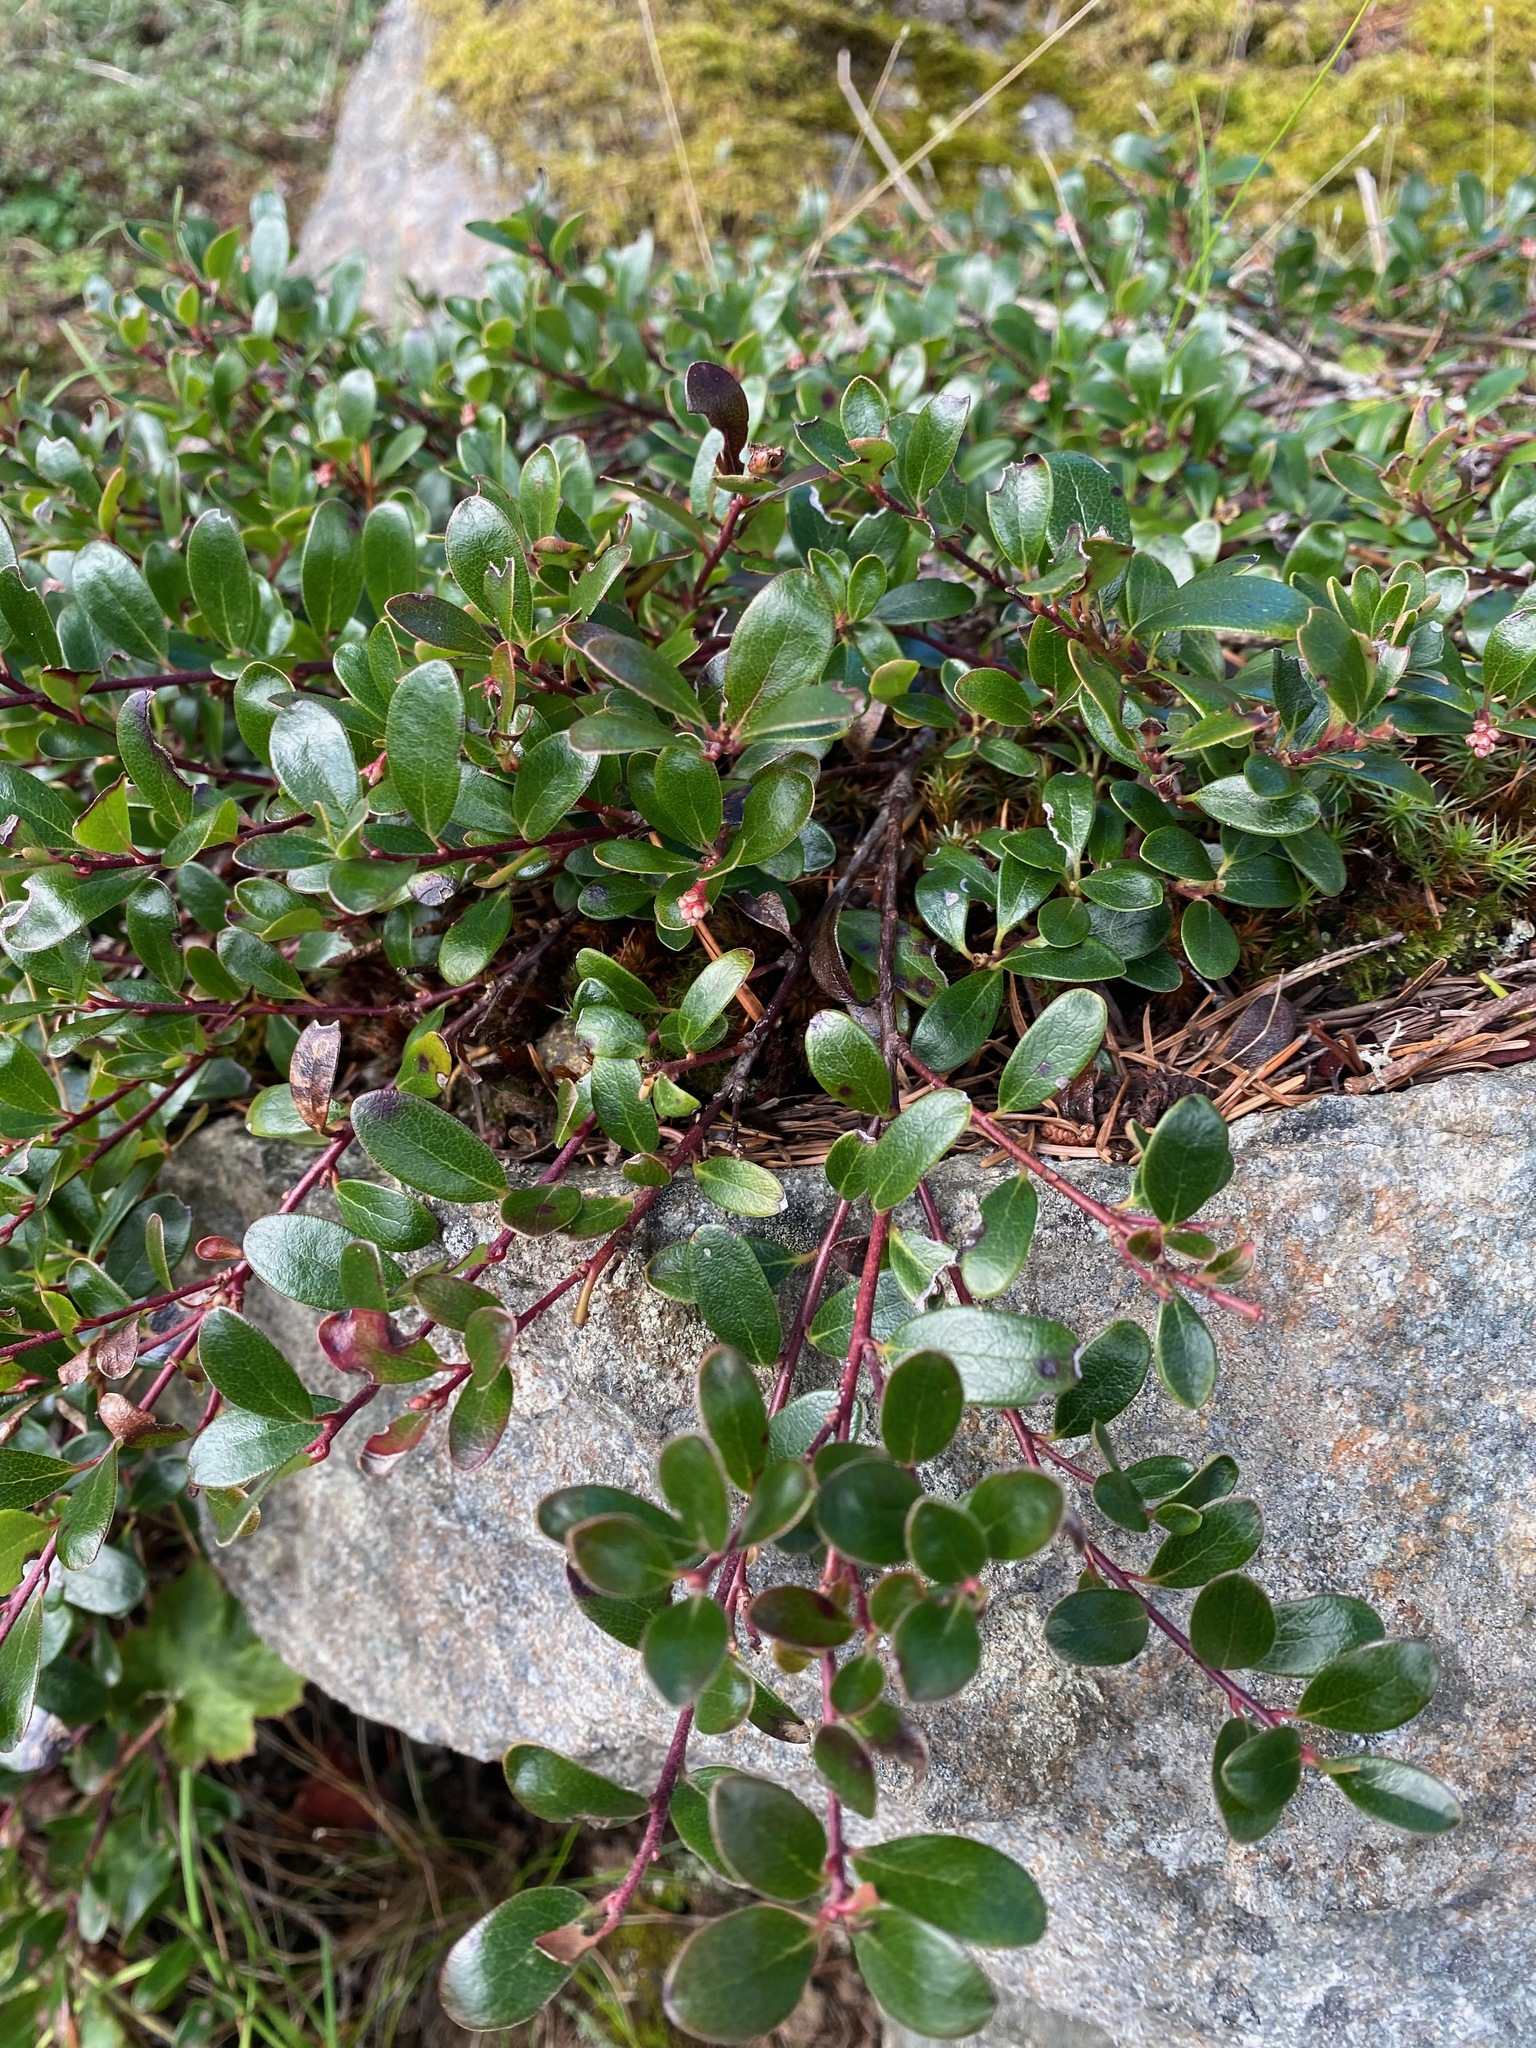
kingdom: Plantae
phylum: Tracheophyta
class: Magnoliopsida
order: Ericales
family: Ericaceae
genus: Arctostaphylos
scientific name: Arctostaphylos uva-ursi
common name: Bearberry
